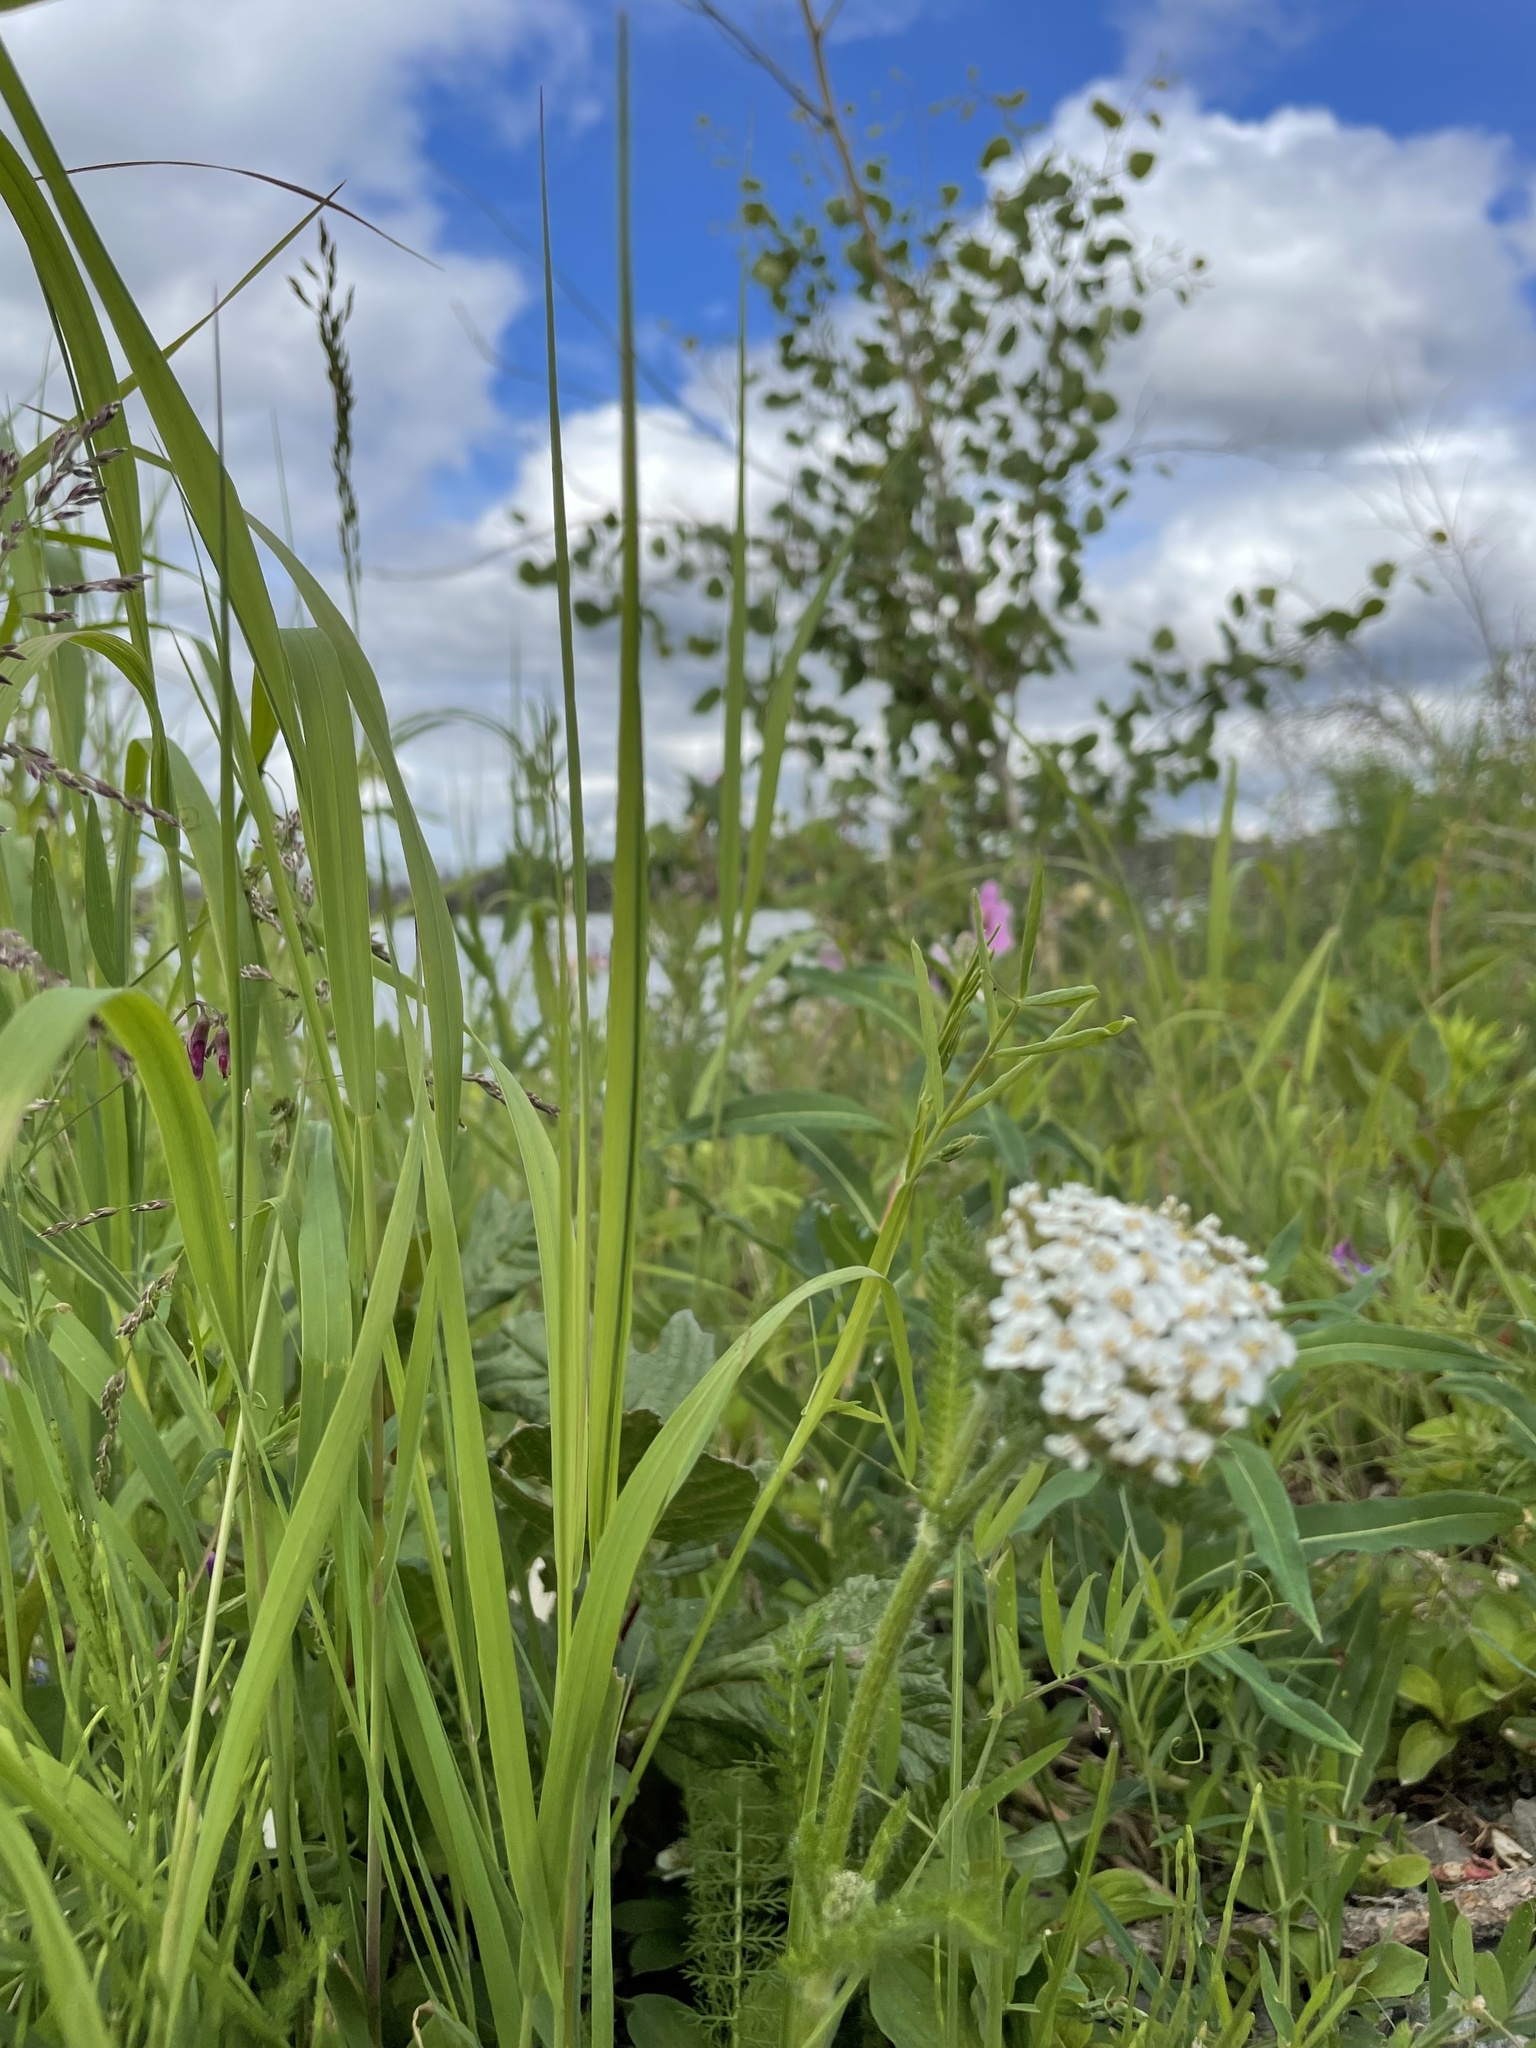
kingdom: Plantae
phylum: Tracheophyta
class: Magnoliopsida
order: Asterales
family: Asteraceae
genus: Achillea
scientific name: Achillea millefolium
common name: Yarrow
